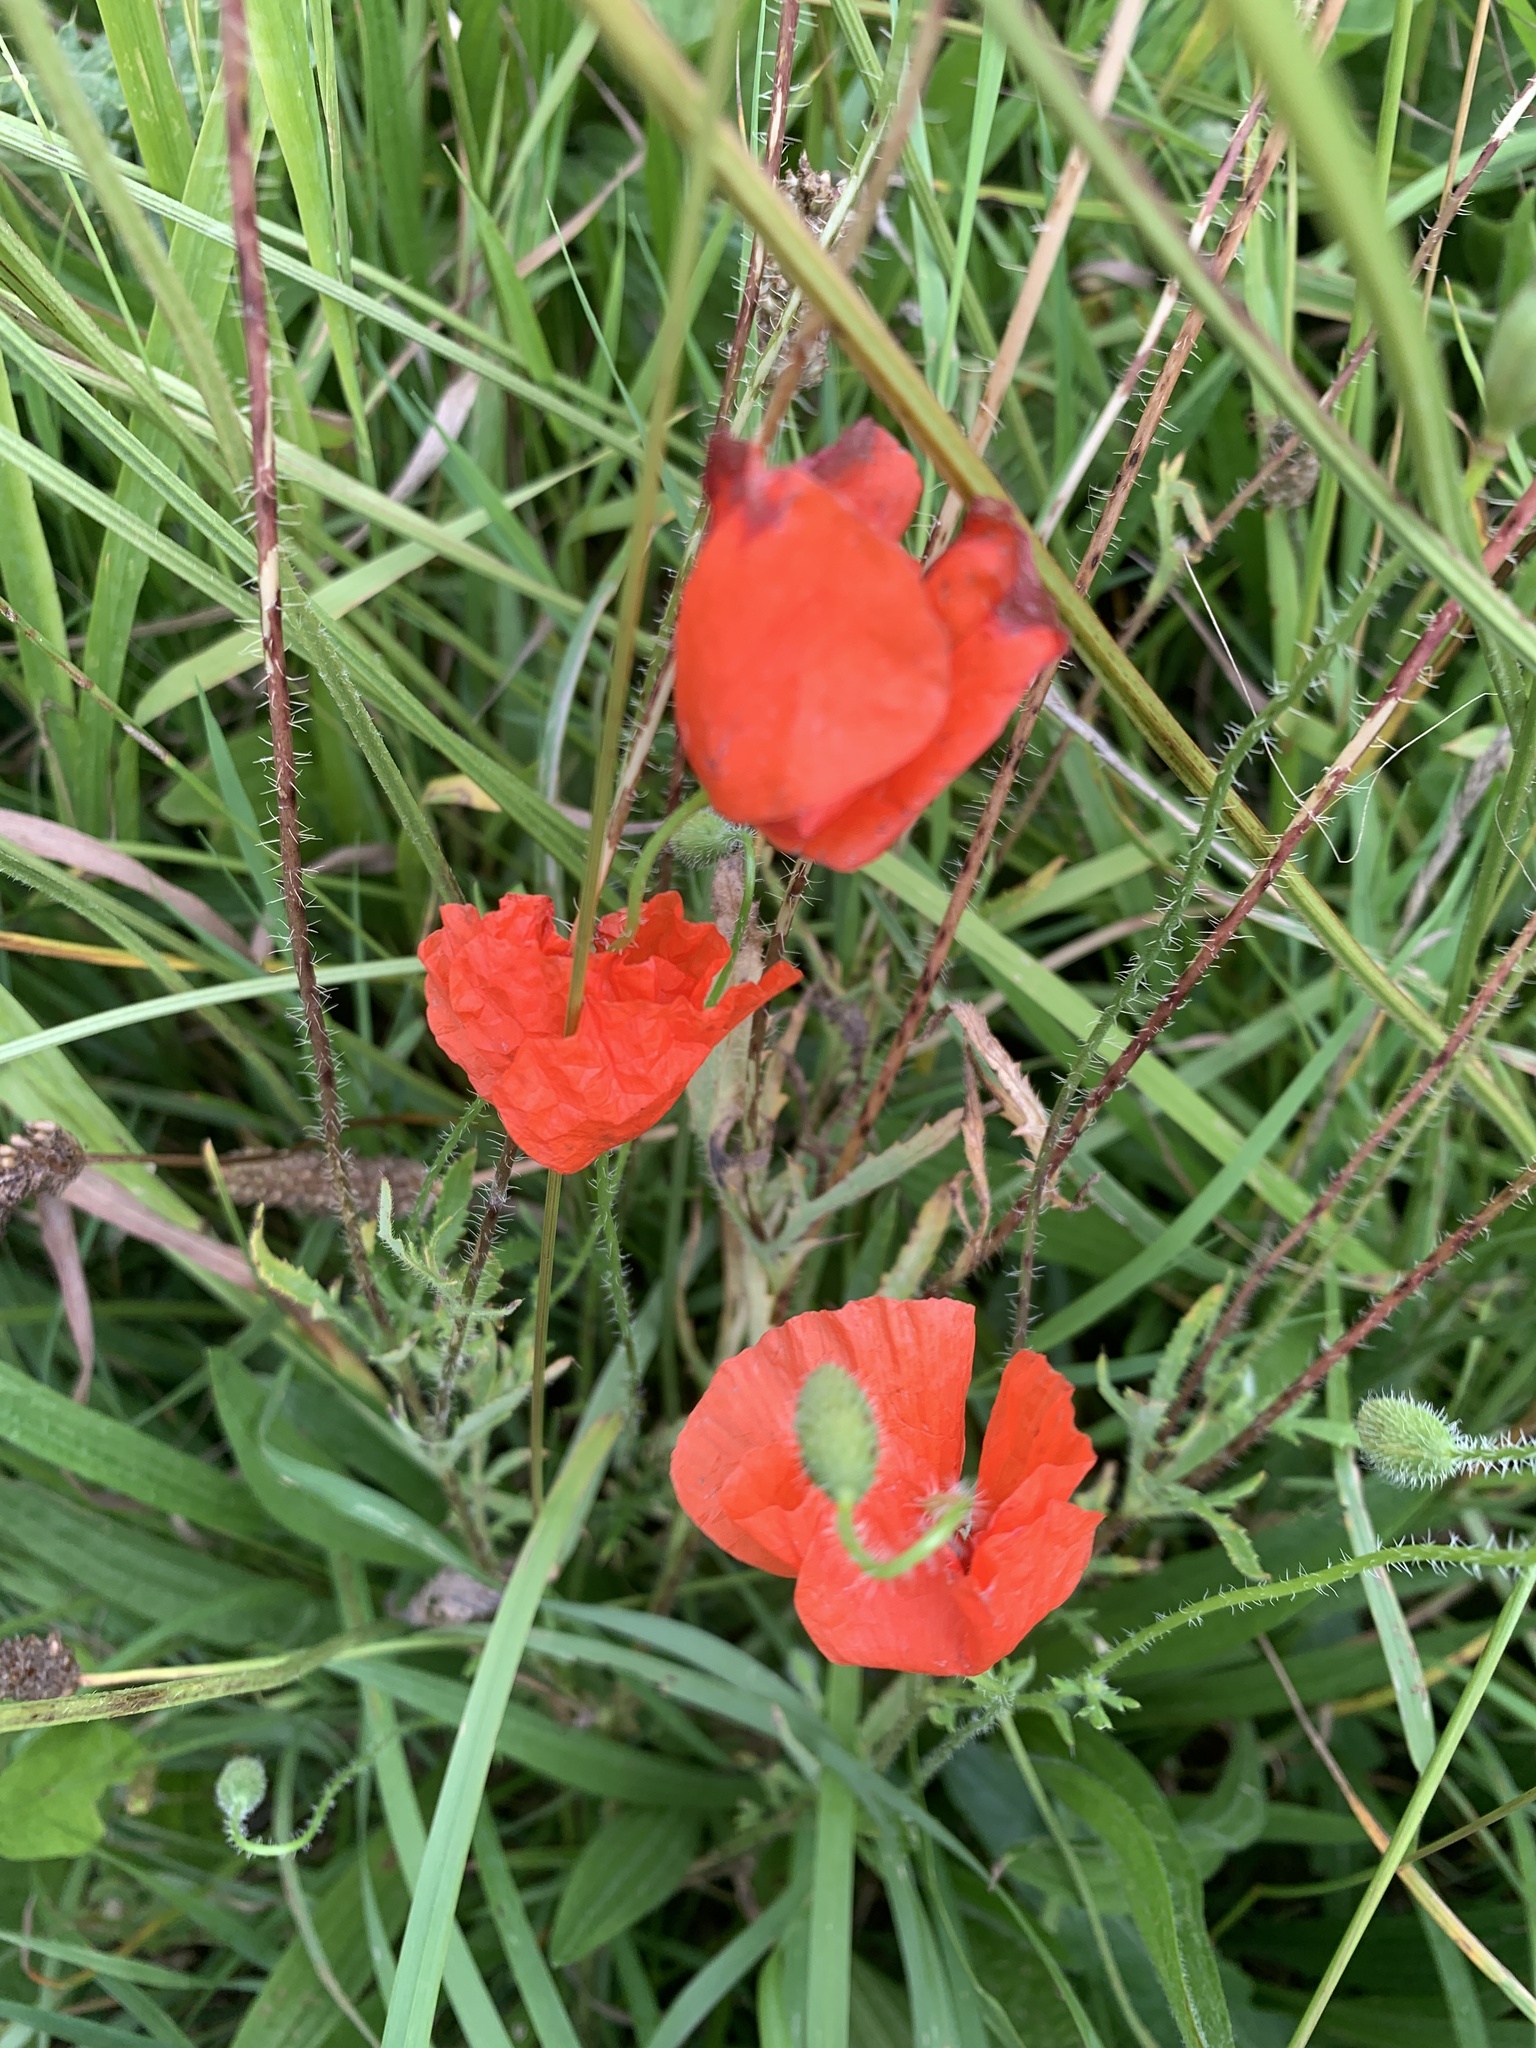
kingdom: Plantae
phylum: Tracheophyta
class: Magnoliopsida
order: Ranunculales
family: Papaveraceae
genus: Papaver
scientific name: Papaver rhoeas
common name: Corn poppy
